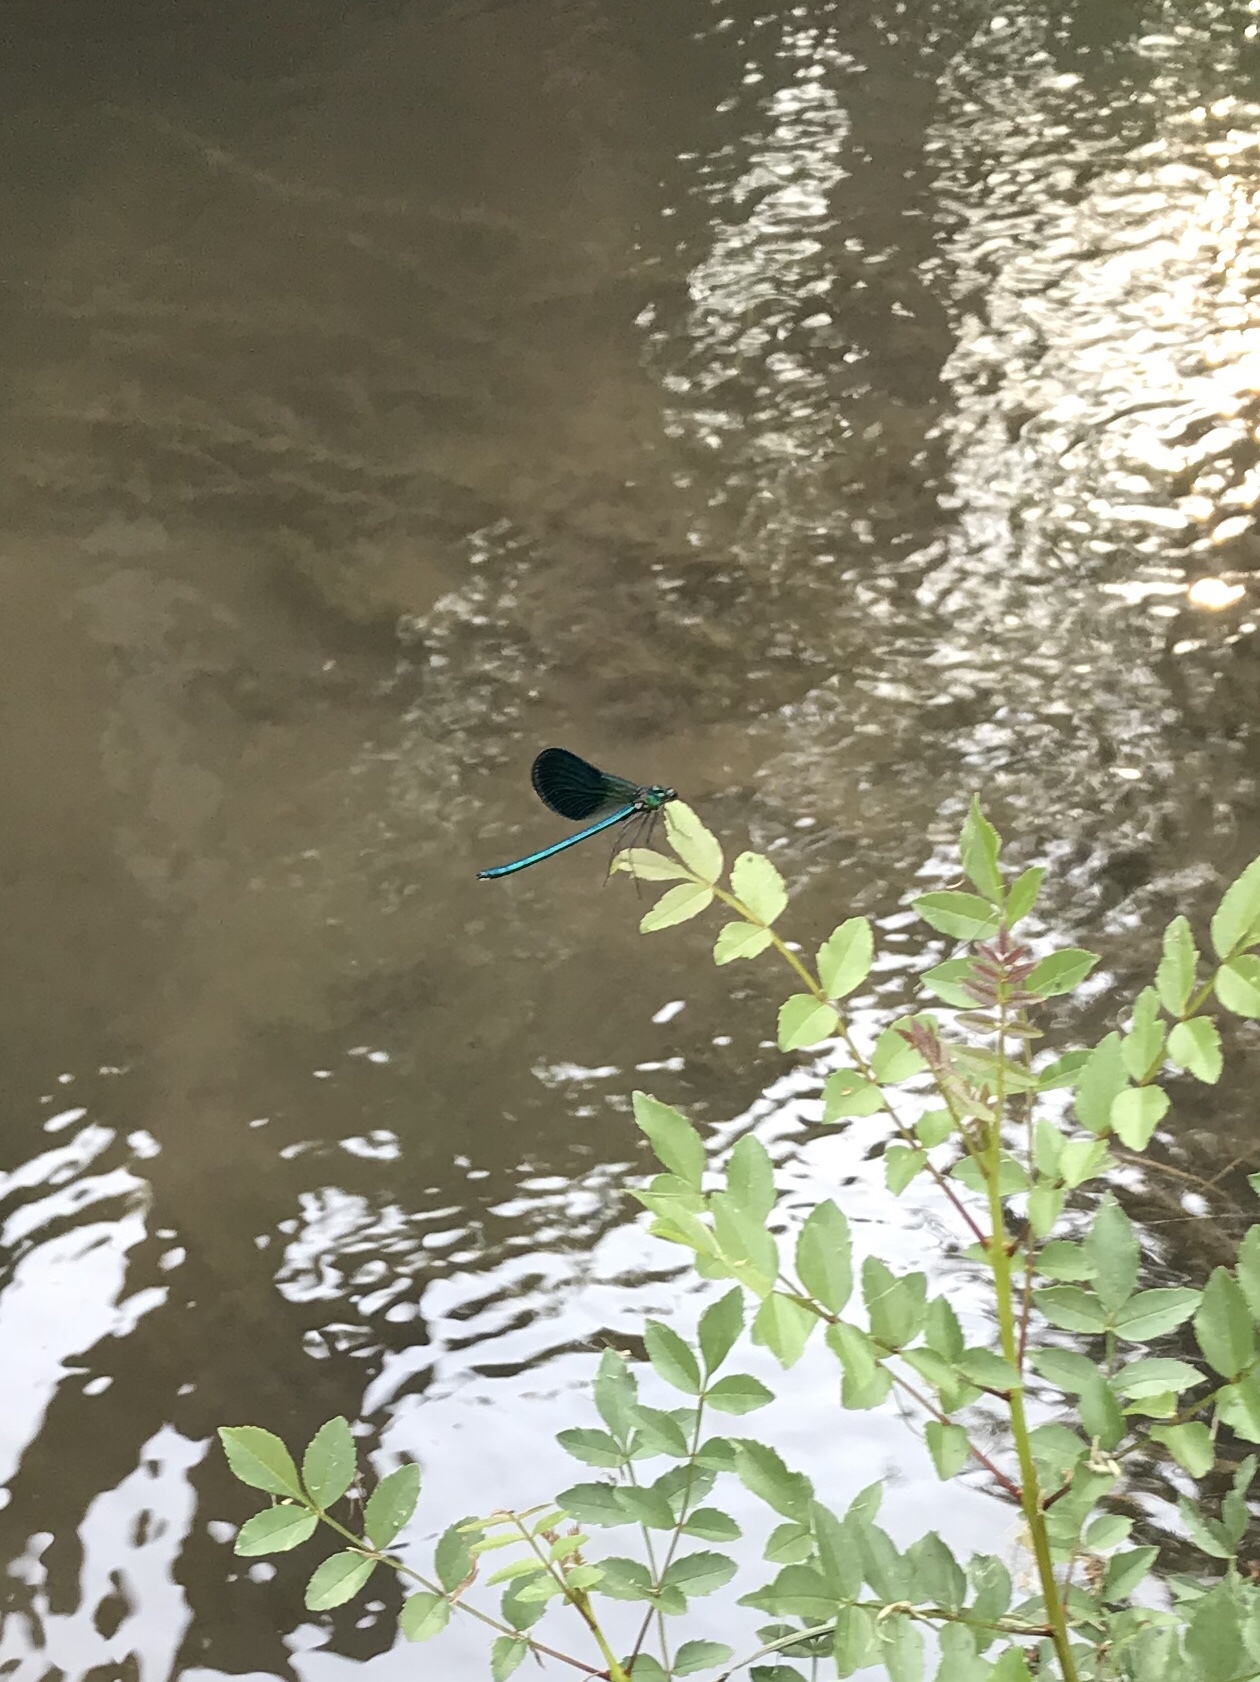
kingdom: Animalia
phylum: Arthropoda
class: Insecta
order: Odonata
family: Calopterygidae
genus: Calopteryx
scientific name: Calopteryx splendens
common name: Banded demoiselle
